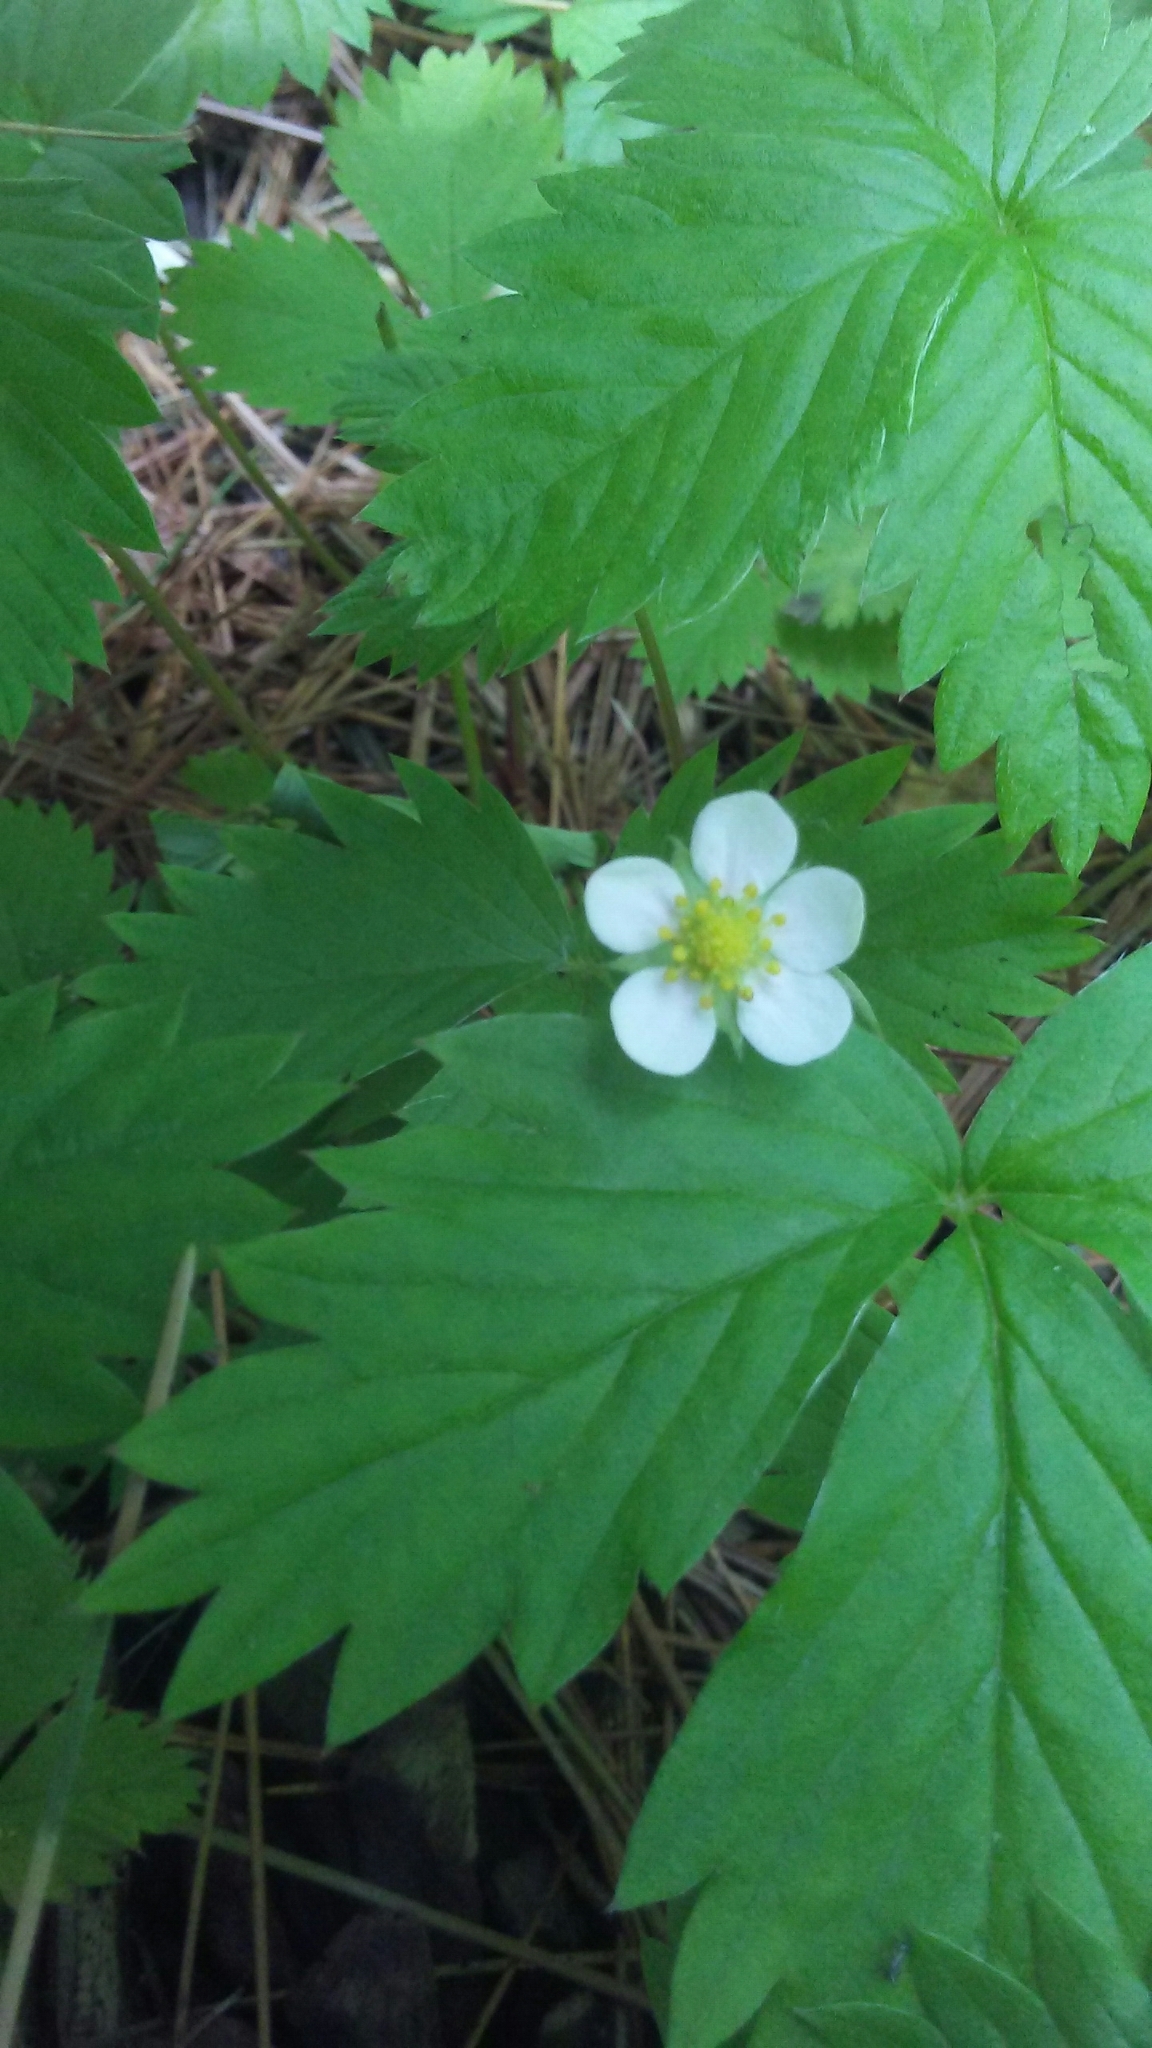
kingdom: Plantae
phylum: Tracheophyta
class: Magnoliopsida
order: Rosales
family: Rosaceae
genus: Fragaria
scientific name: Fragaria vesca
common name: Wild strawberry
